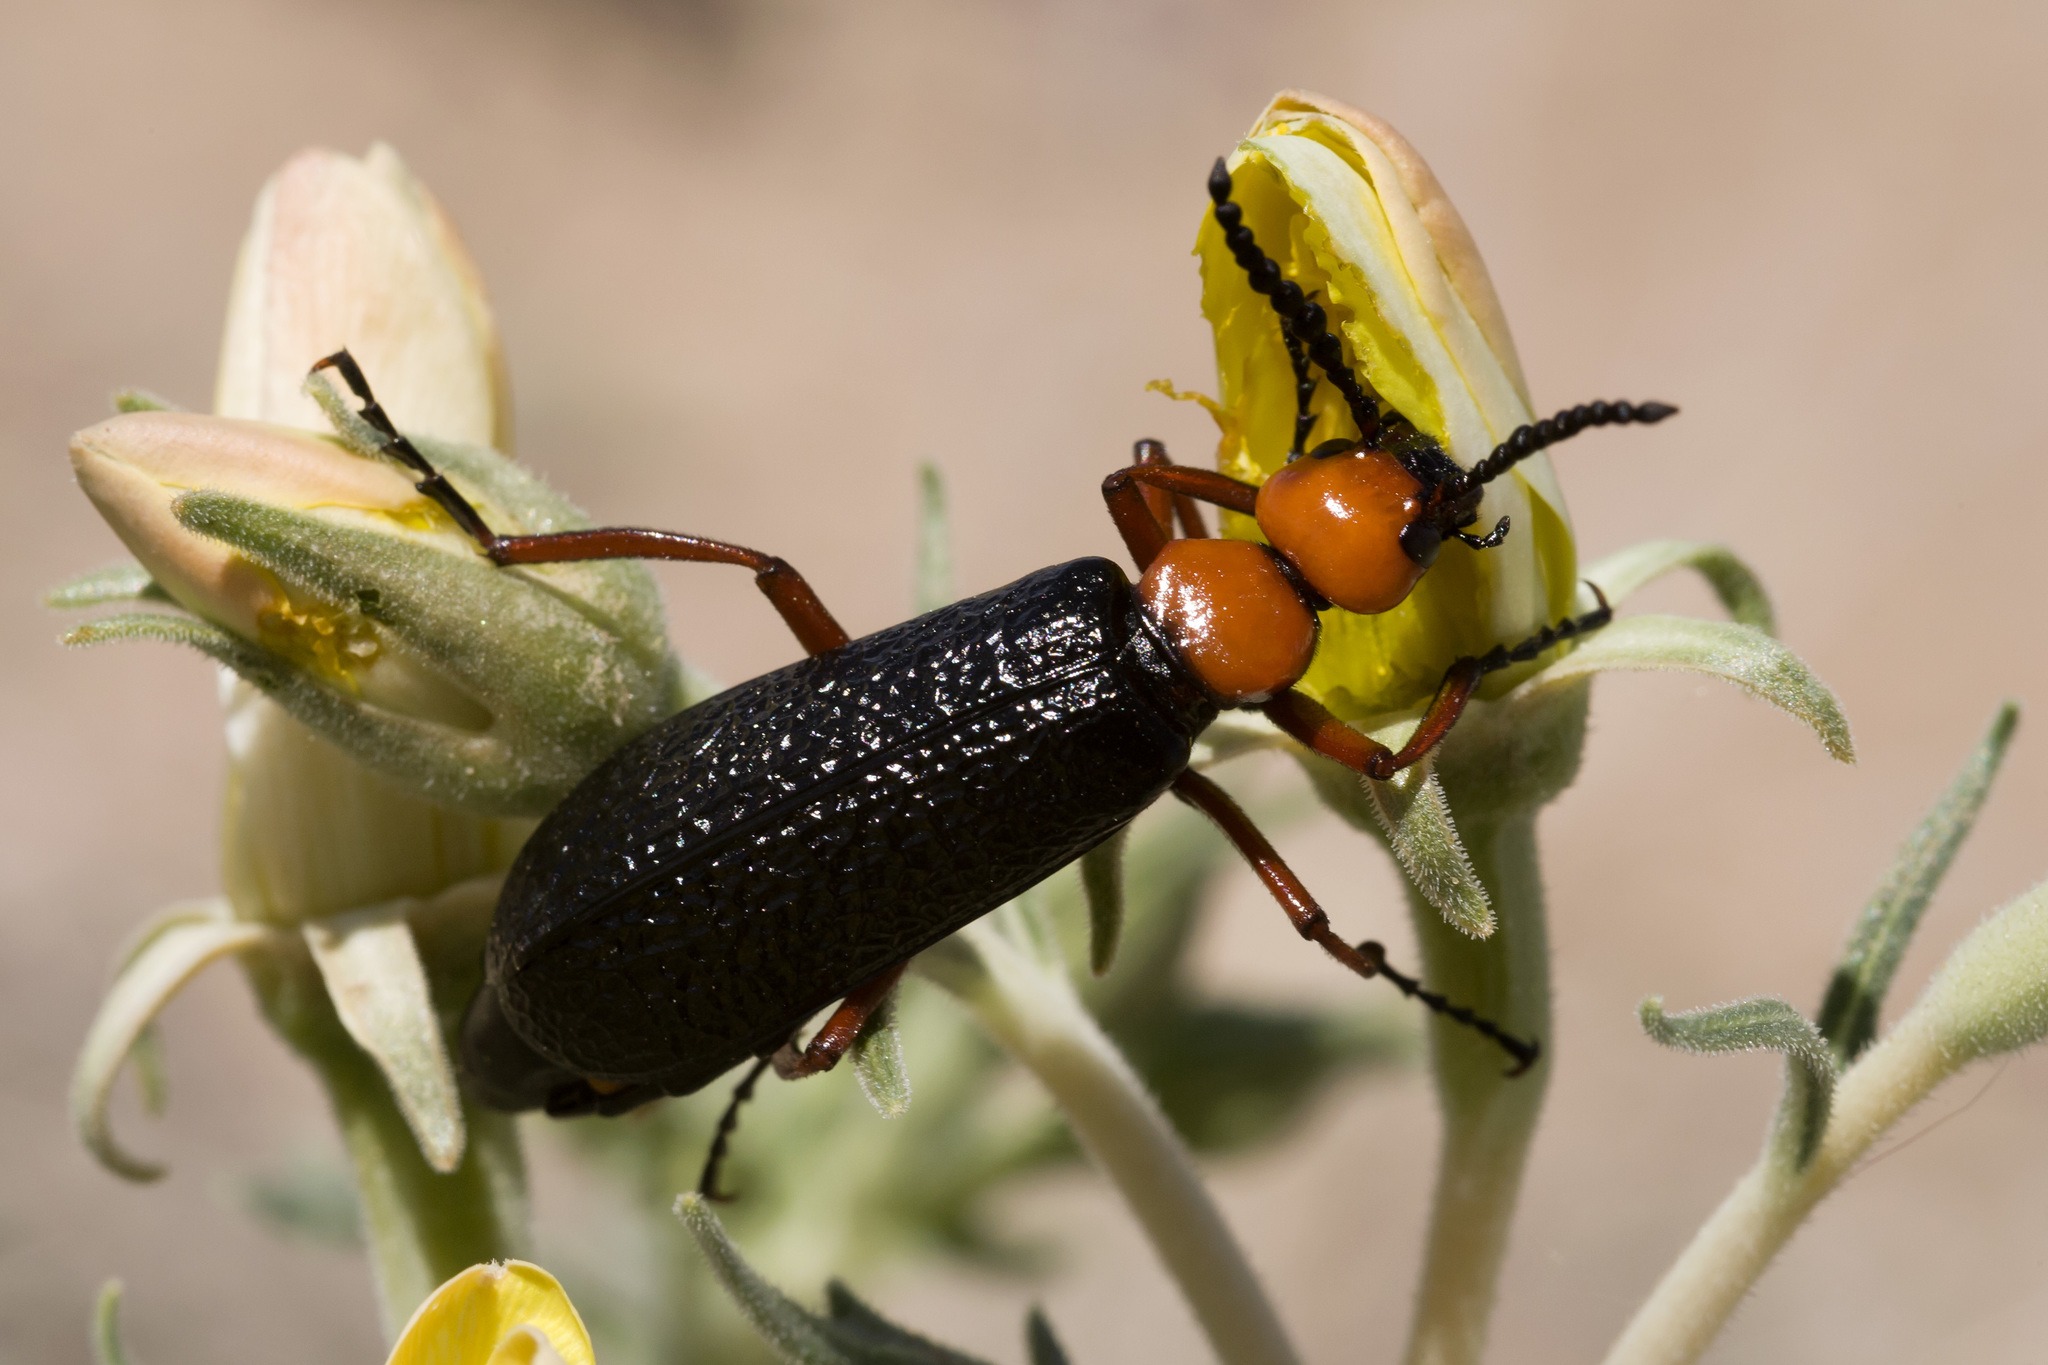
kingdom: Animalia
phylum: Arthropoda
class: Insecta
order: Coleoptera
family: Meloidae
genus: Lytta
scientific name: Lytta magister
